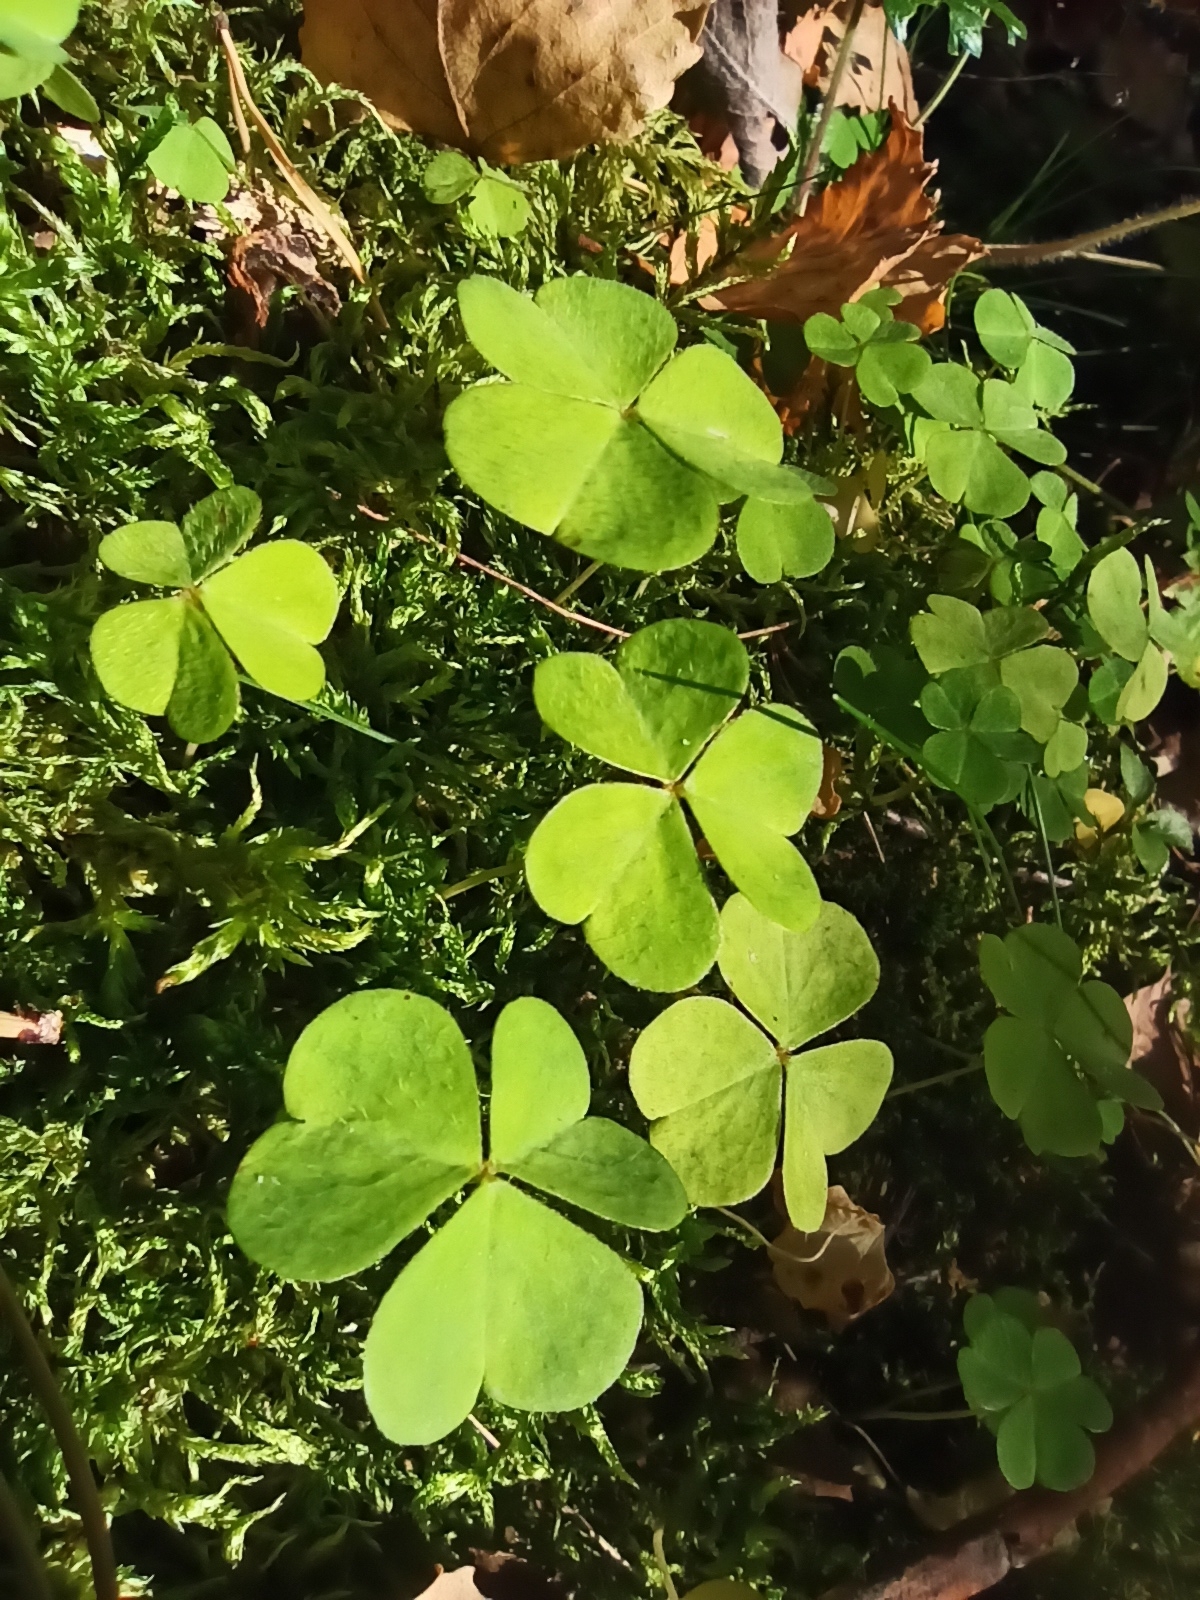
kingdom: Plantae
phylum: Tracheophyta
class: Magnoliopsida
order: Oxalidales
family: Oxalidaceae
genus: Oxalis
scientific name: Oxalis acetosella
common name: Wood-sorrel
